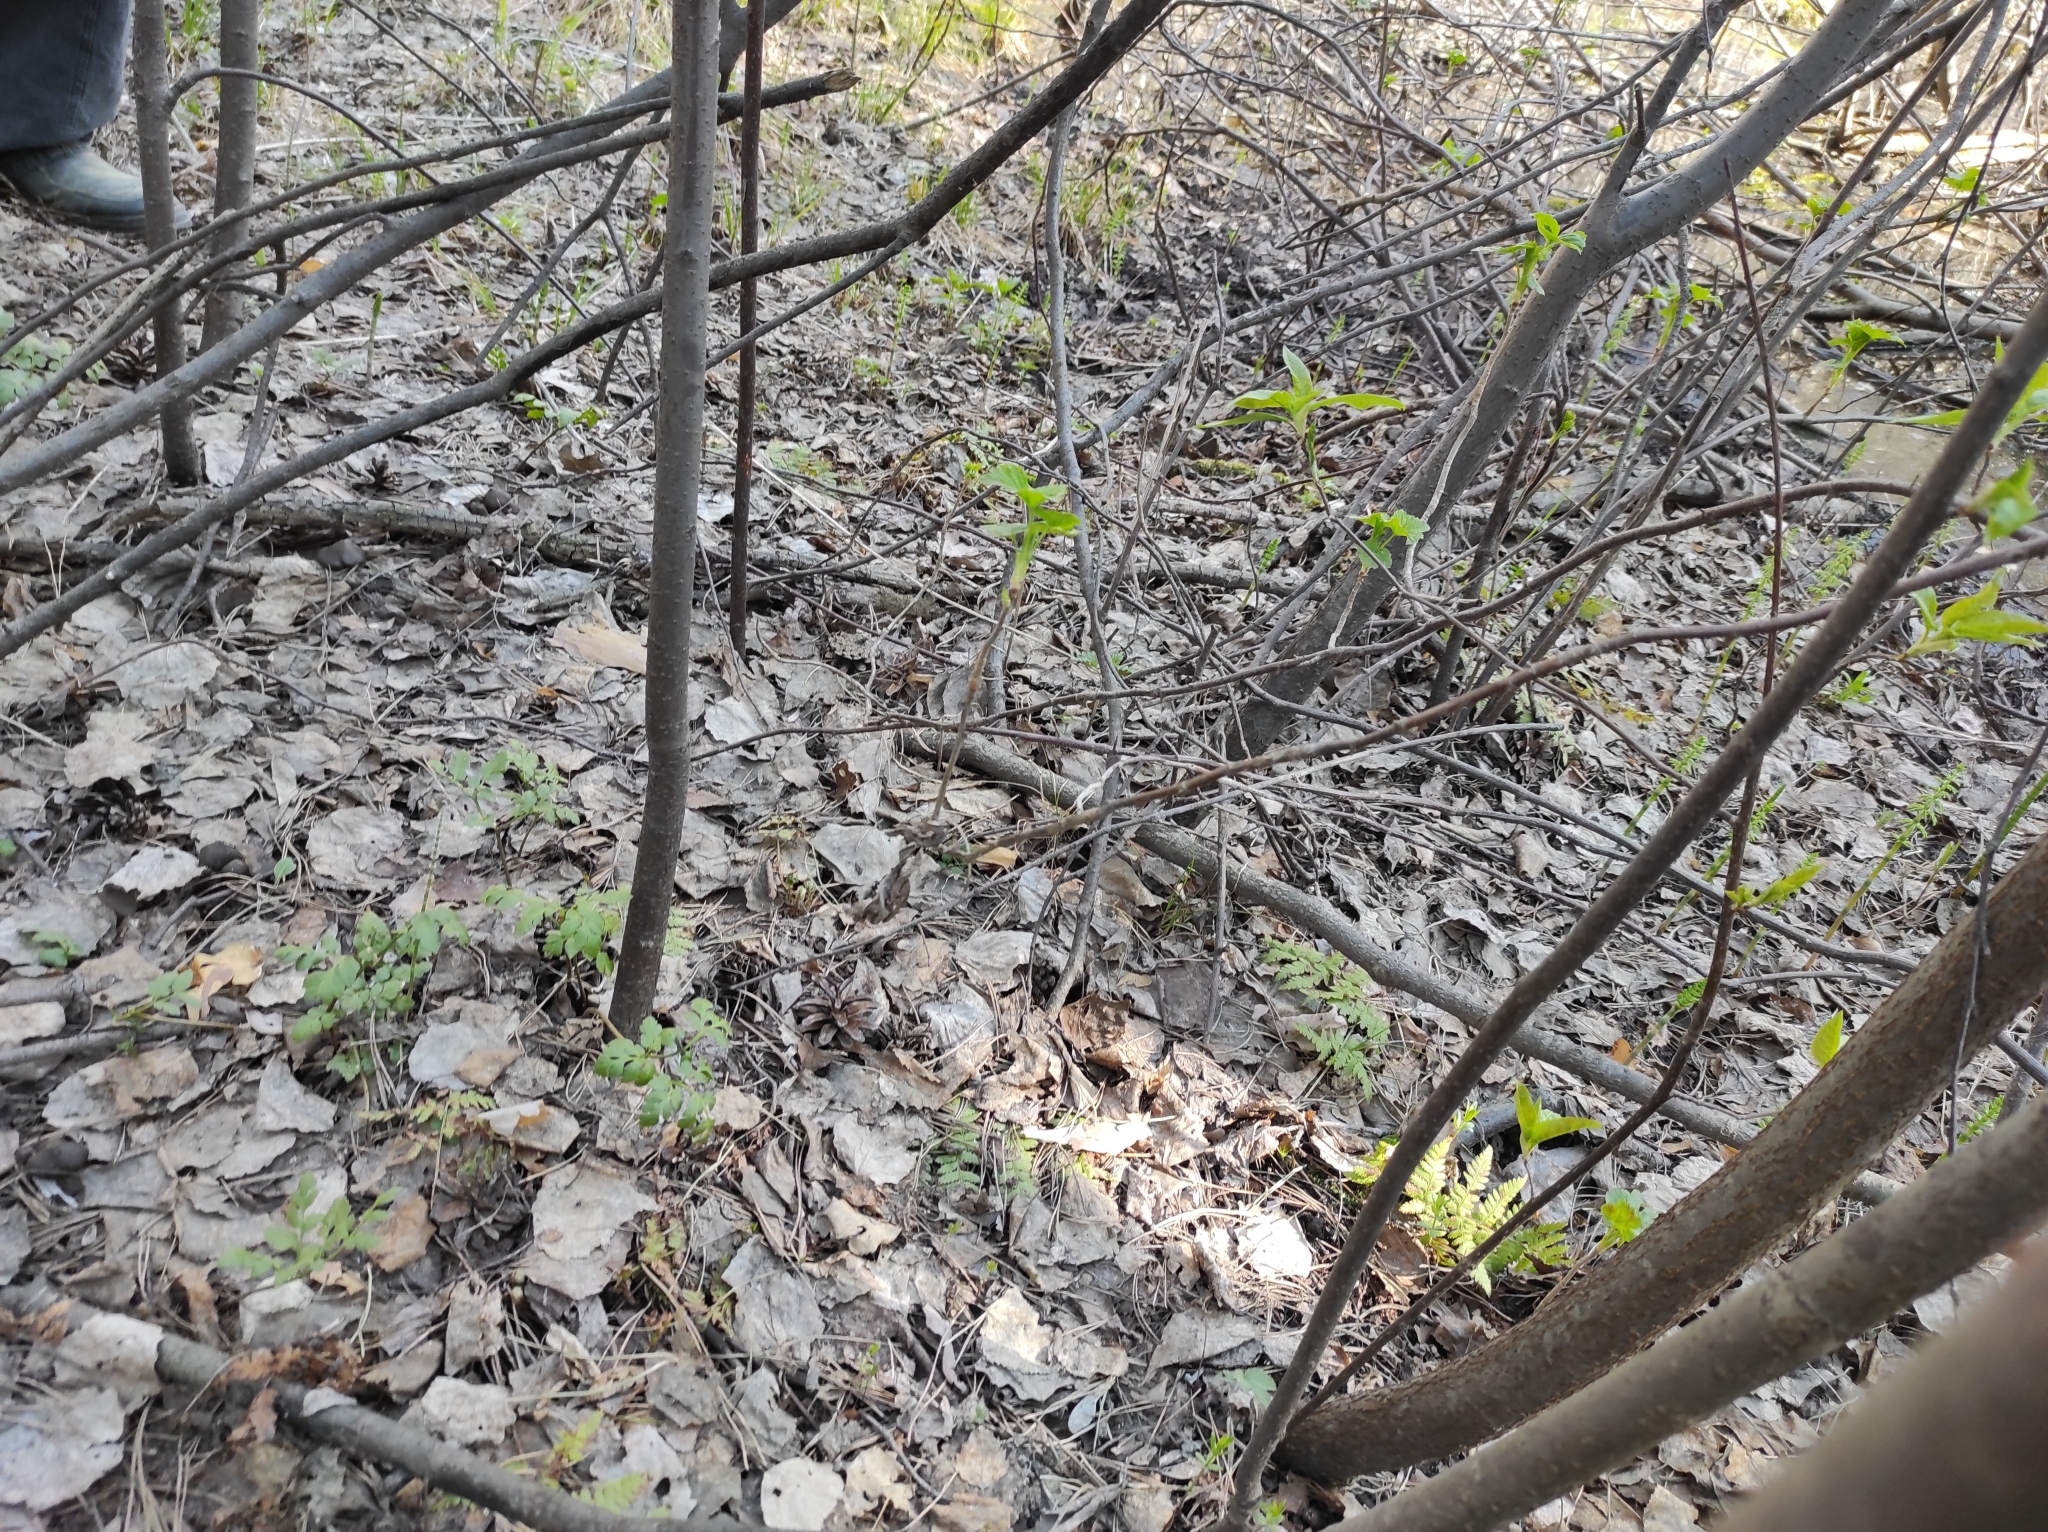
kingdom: Plantae
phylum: Tracheophyta
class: Polypodiopsida
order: Ophioglossales
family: Ophioglossaceae
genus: Sceptridium
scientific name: Sceptridium multifidum
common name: Leathery grape fern
